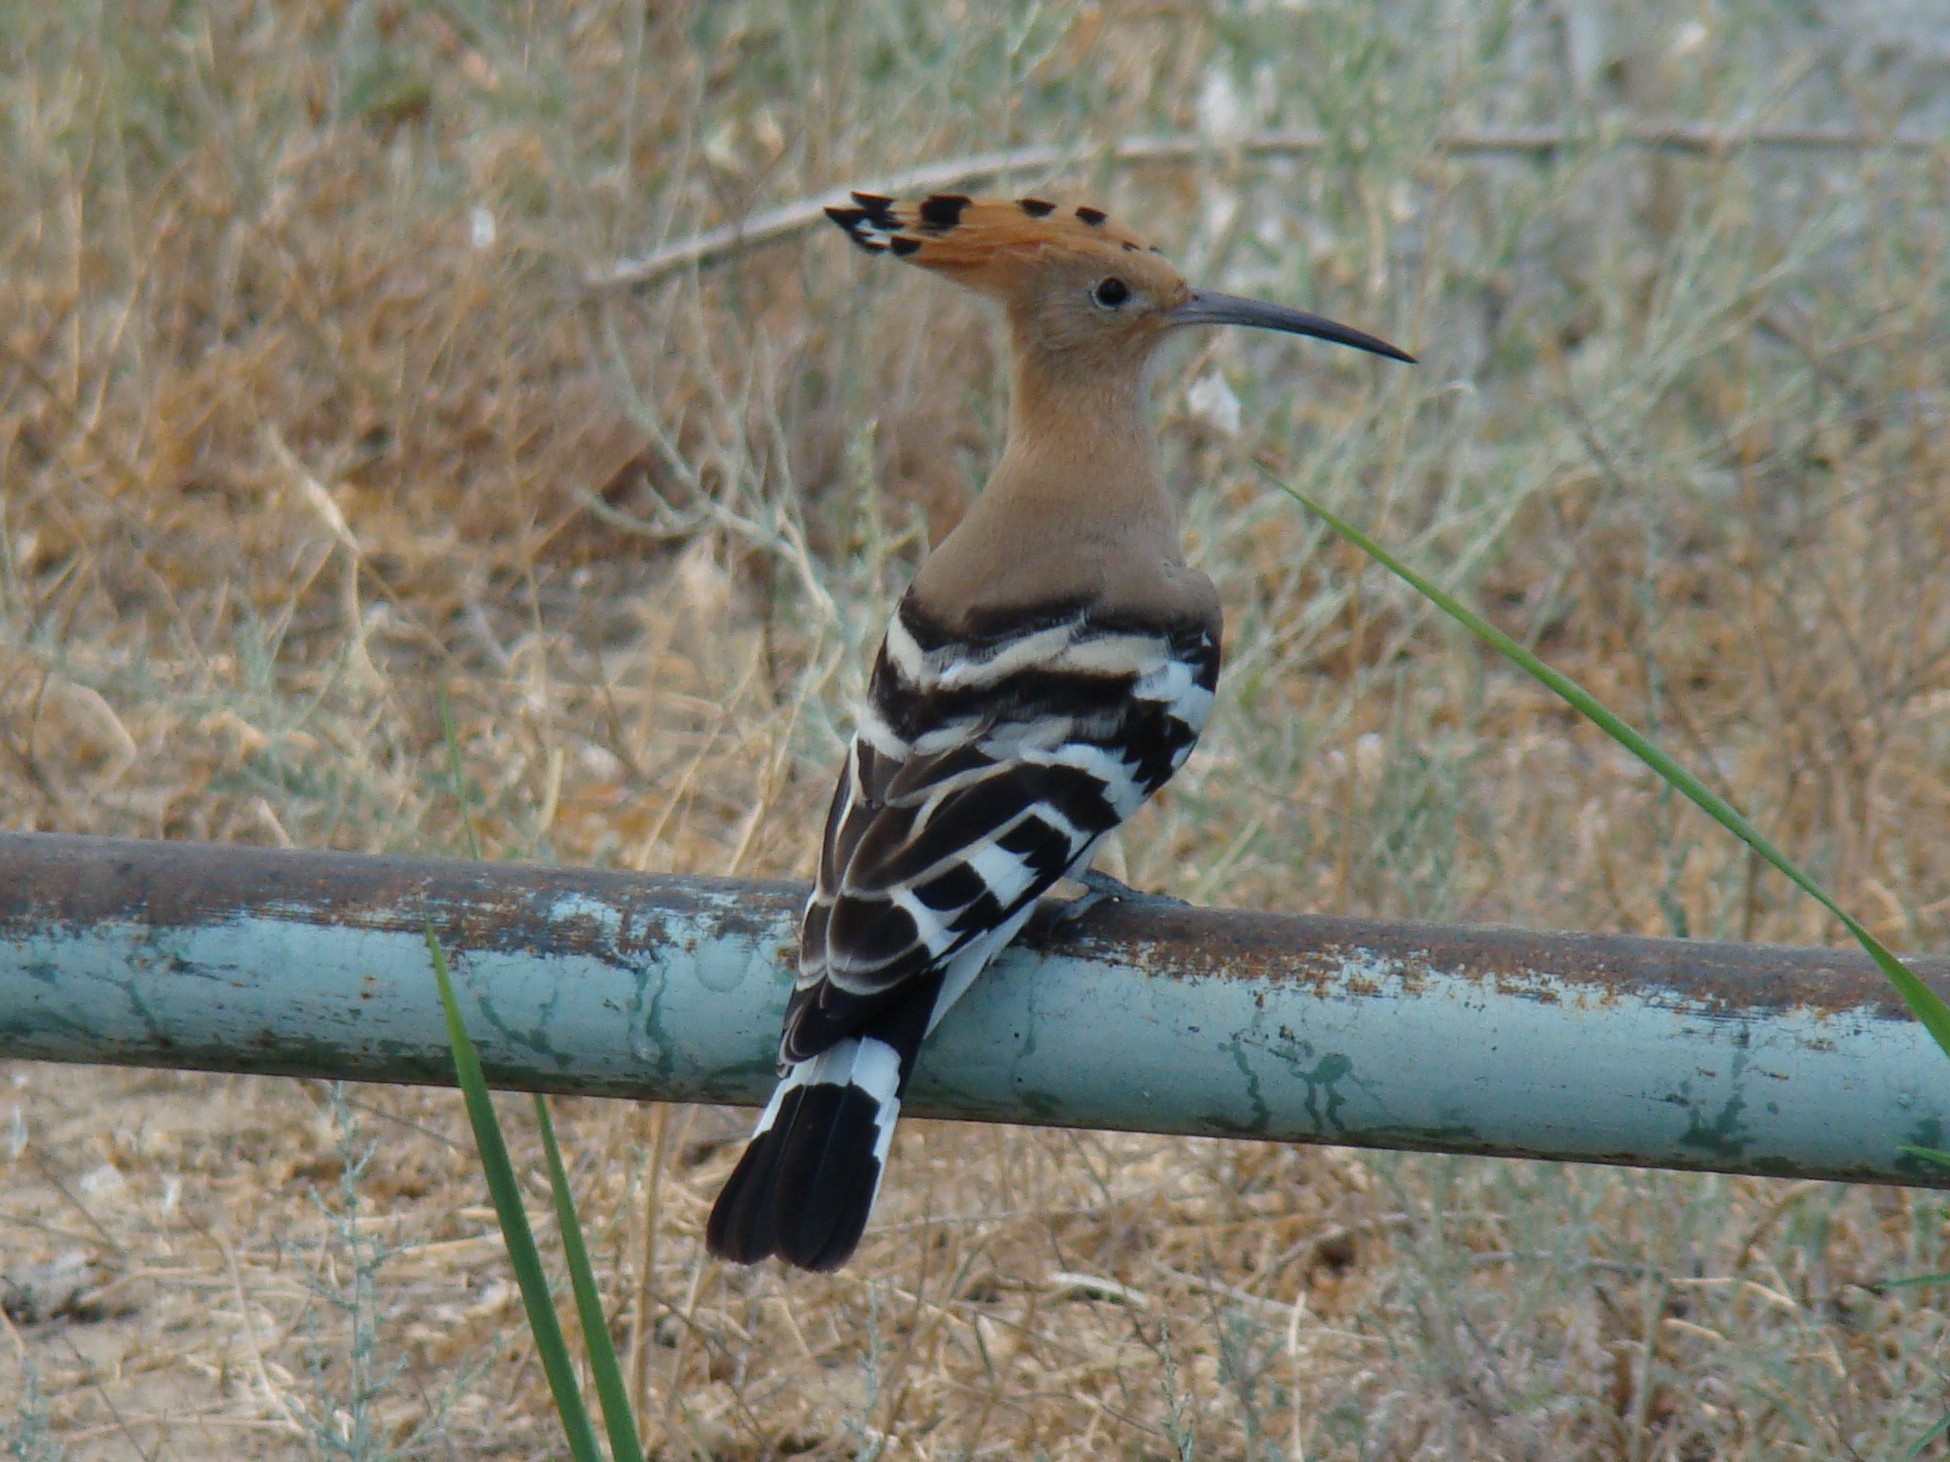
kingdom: Animalia
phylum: Chordata
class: Aves
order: Bucerotiformes
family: Upupidae
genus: Upupa
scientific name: Upupa epops
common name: Eurasian hoopoe
